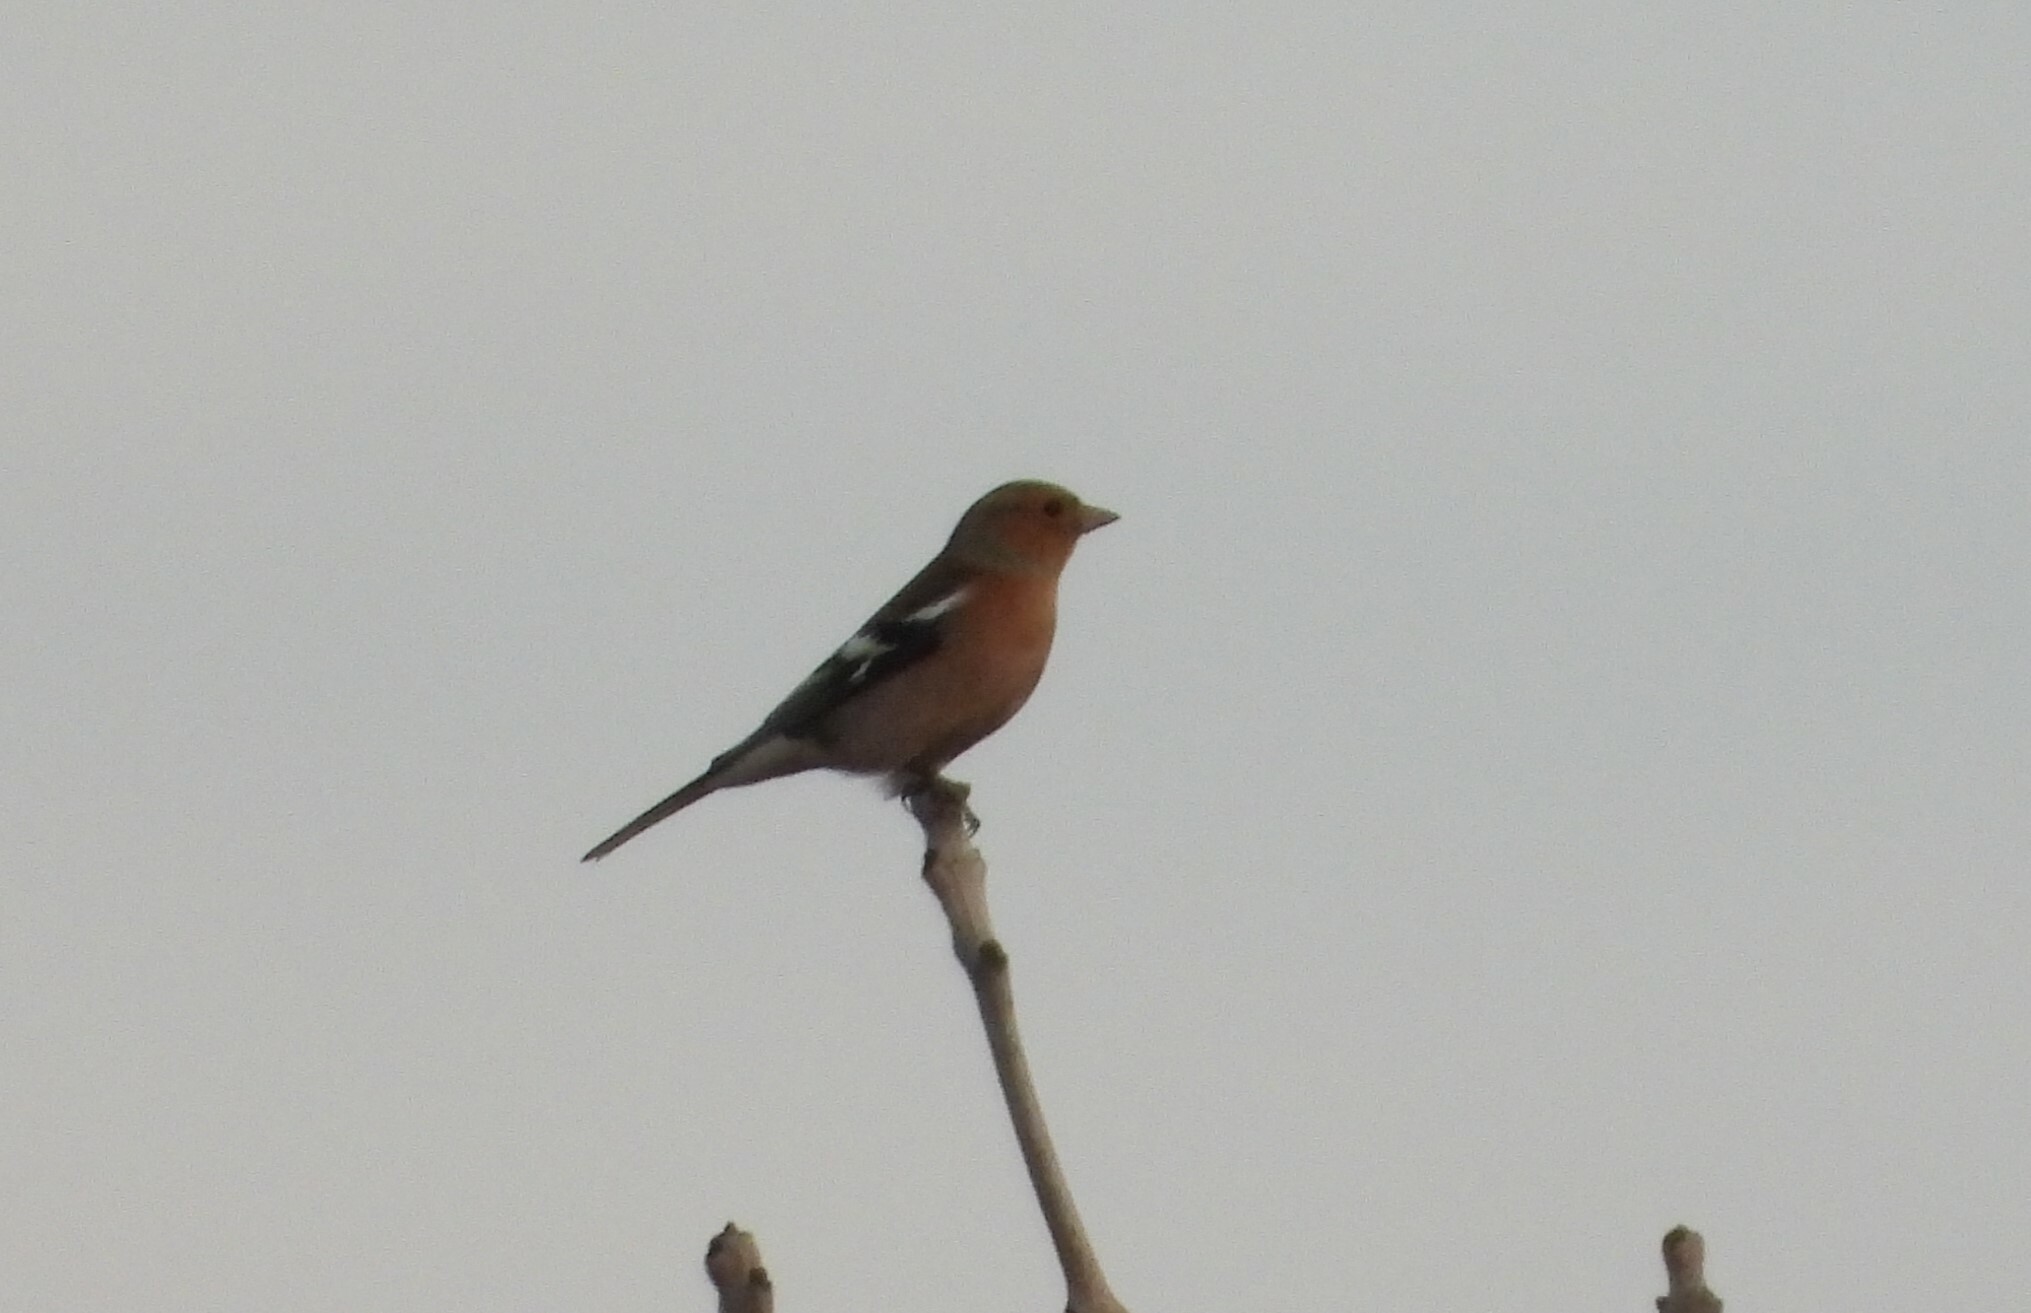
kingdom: Animalia
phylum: Chordata
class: Aves
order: Passeriformes
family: Fringillidae
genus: Fringilla
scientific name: Fringilla coelebs
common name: Common chaffinch
